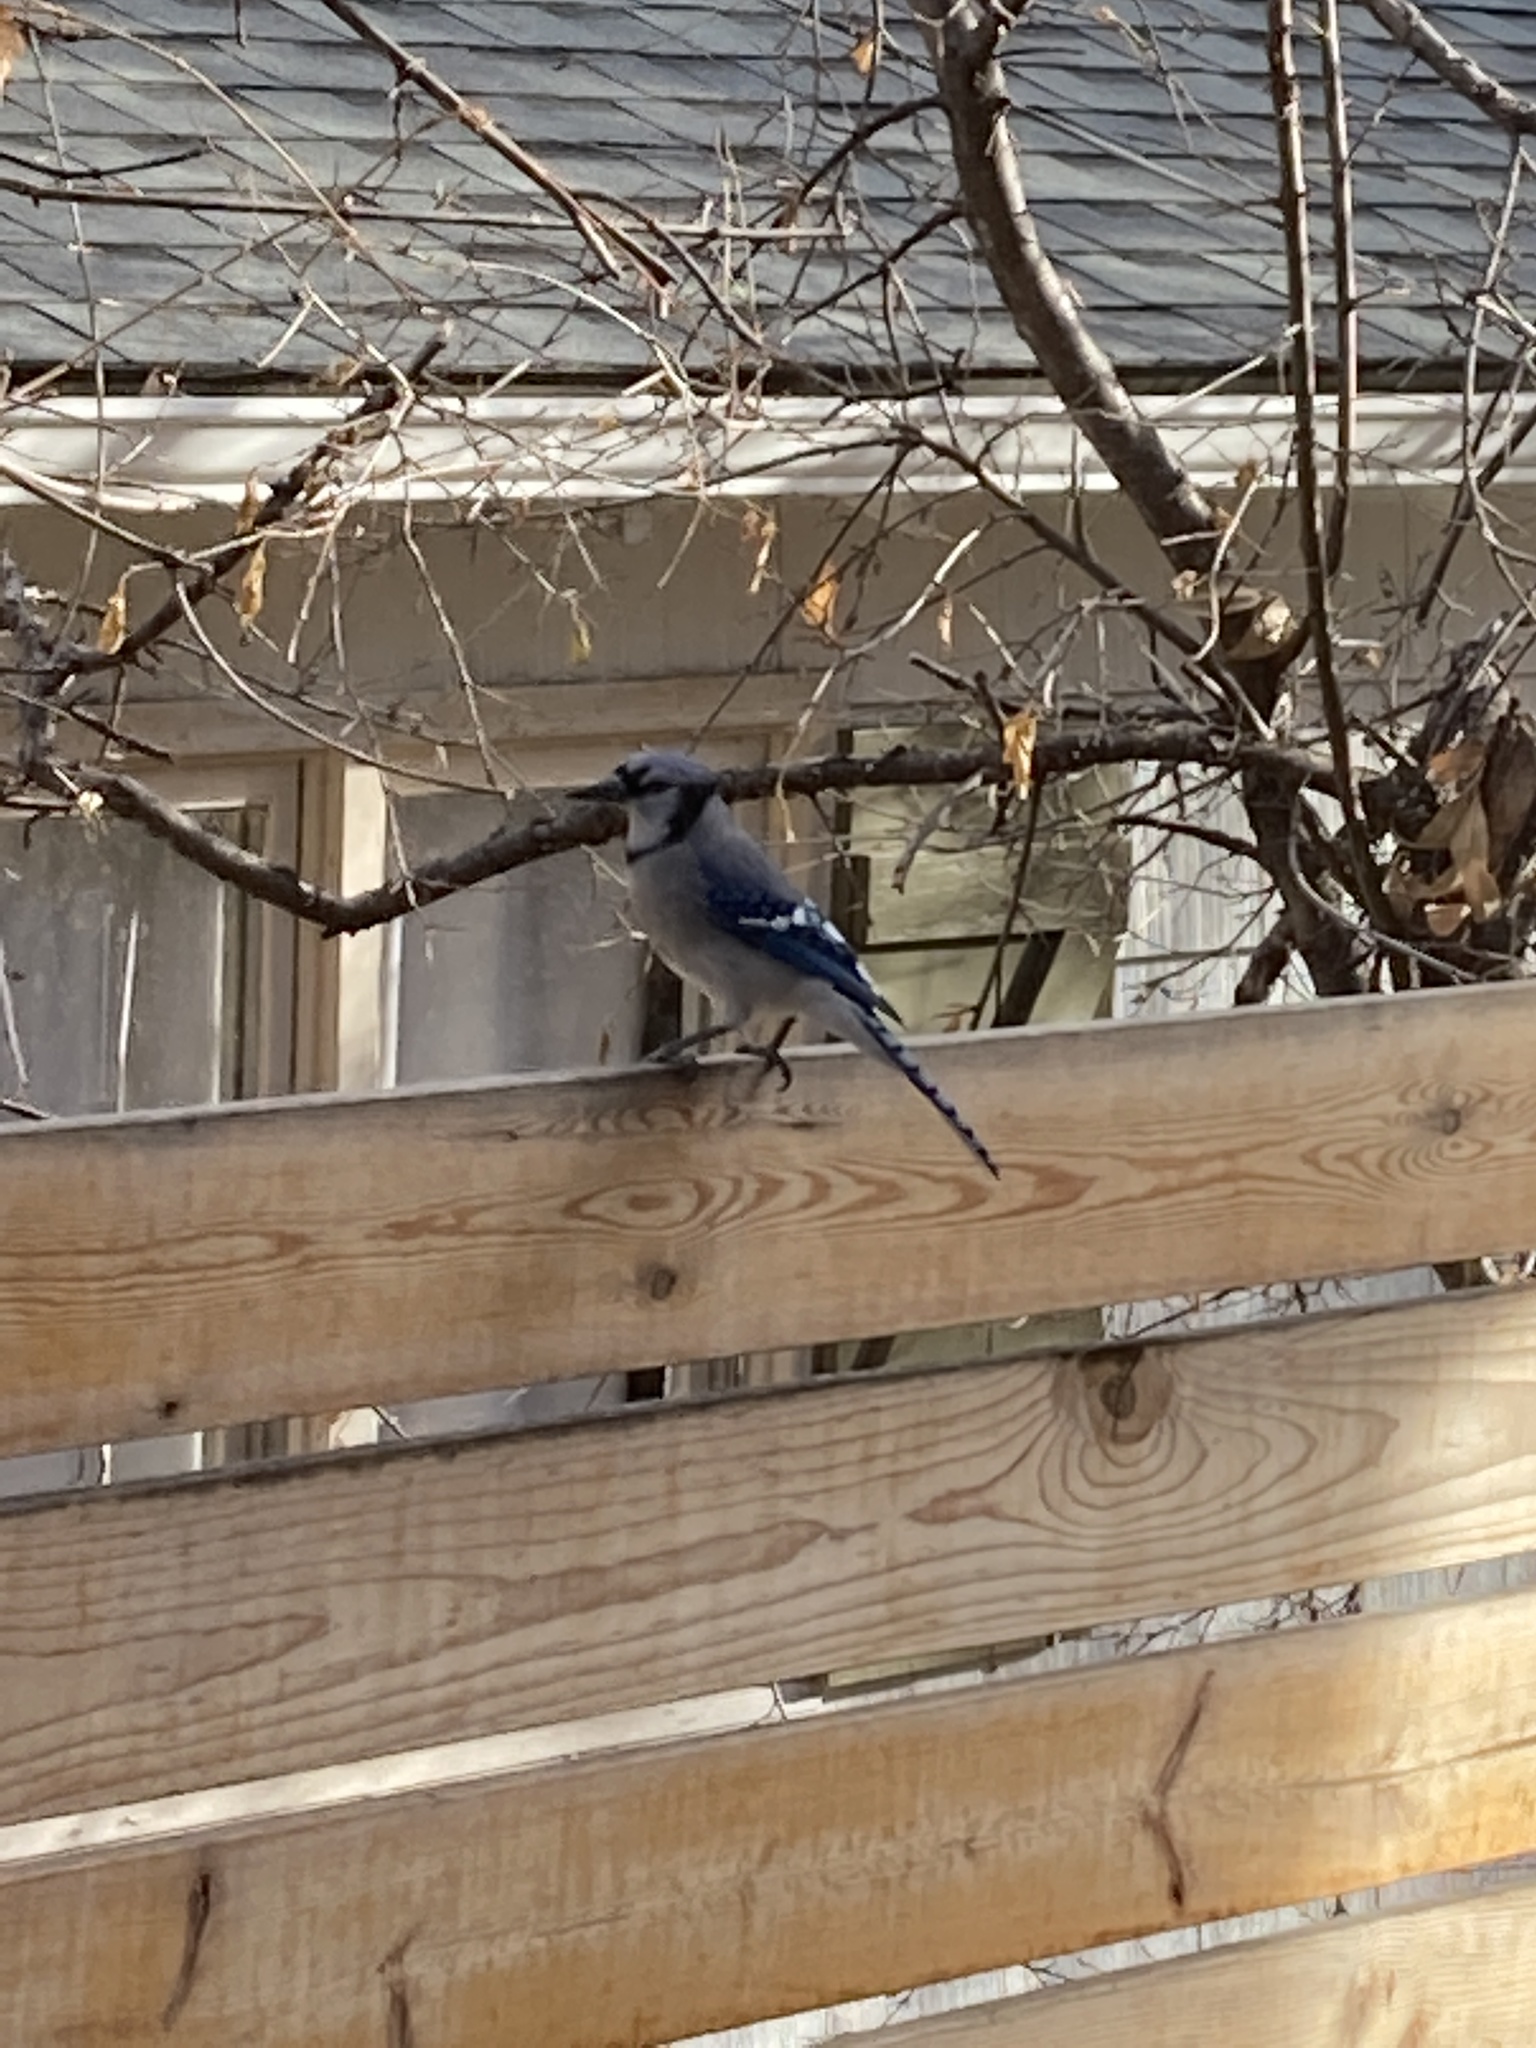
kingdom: Animalia
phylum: Chordata
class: Aves
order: Passeriformes
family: Corvidae
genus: Cyanocitta
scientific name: Cyanocitta cristata
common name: Blue jay
